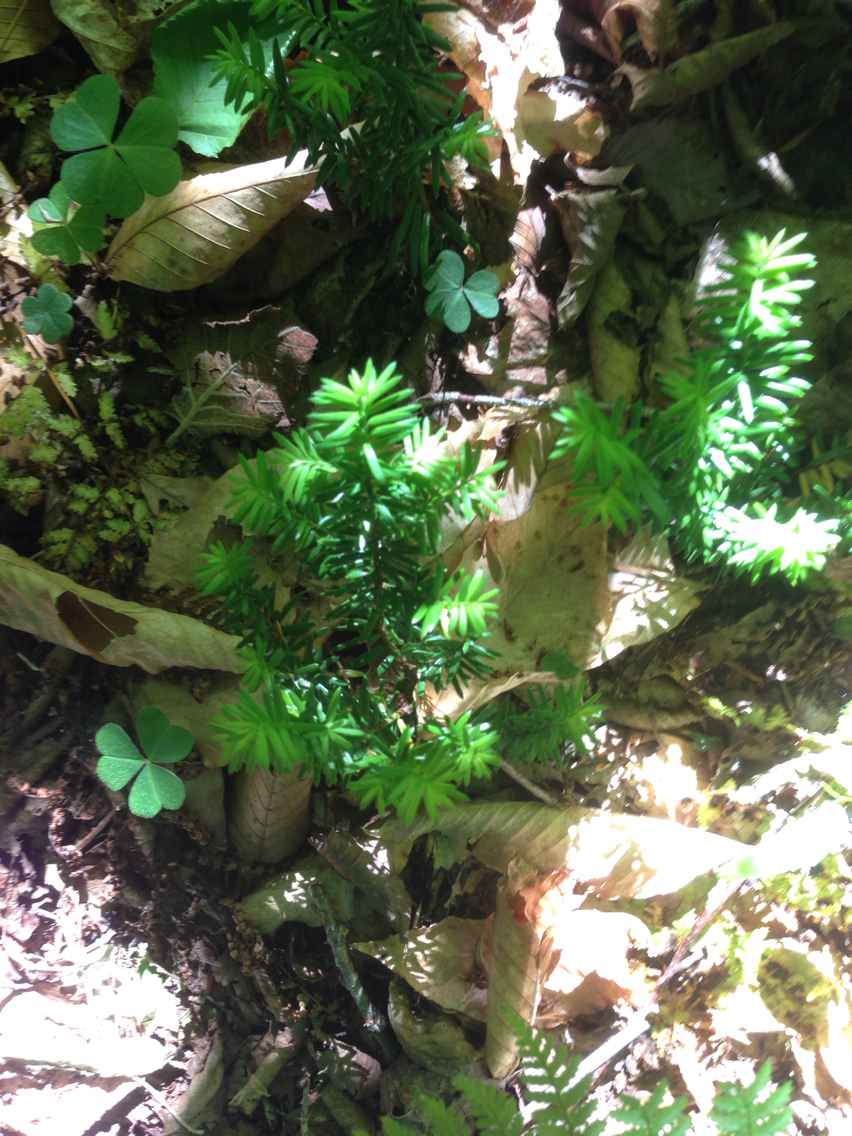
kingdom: Plantae
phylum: Tracheophyta
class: Pinopsida
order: Pinales
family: Taxaceae
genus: Taxus
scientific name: Taxus canadensis
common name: American yew
